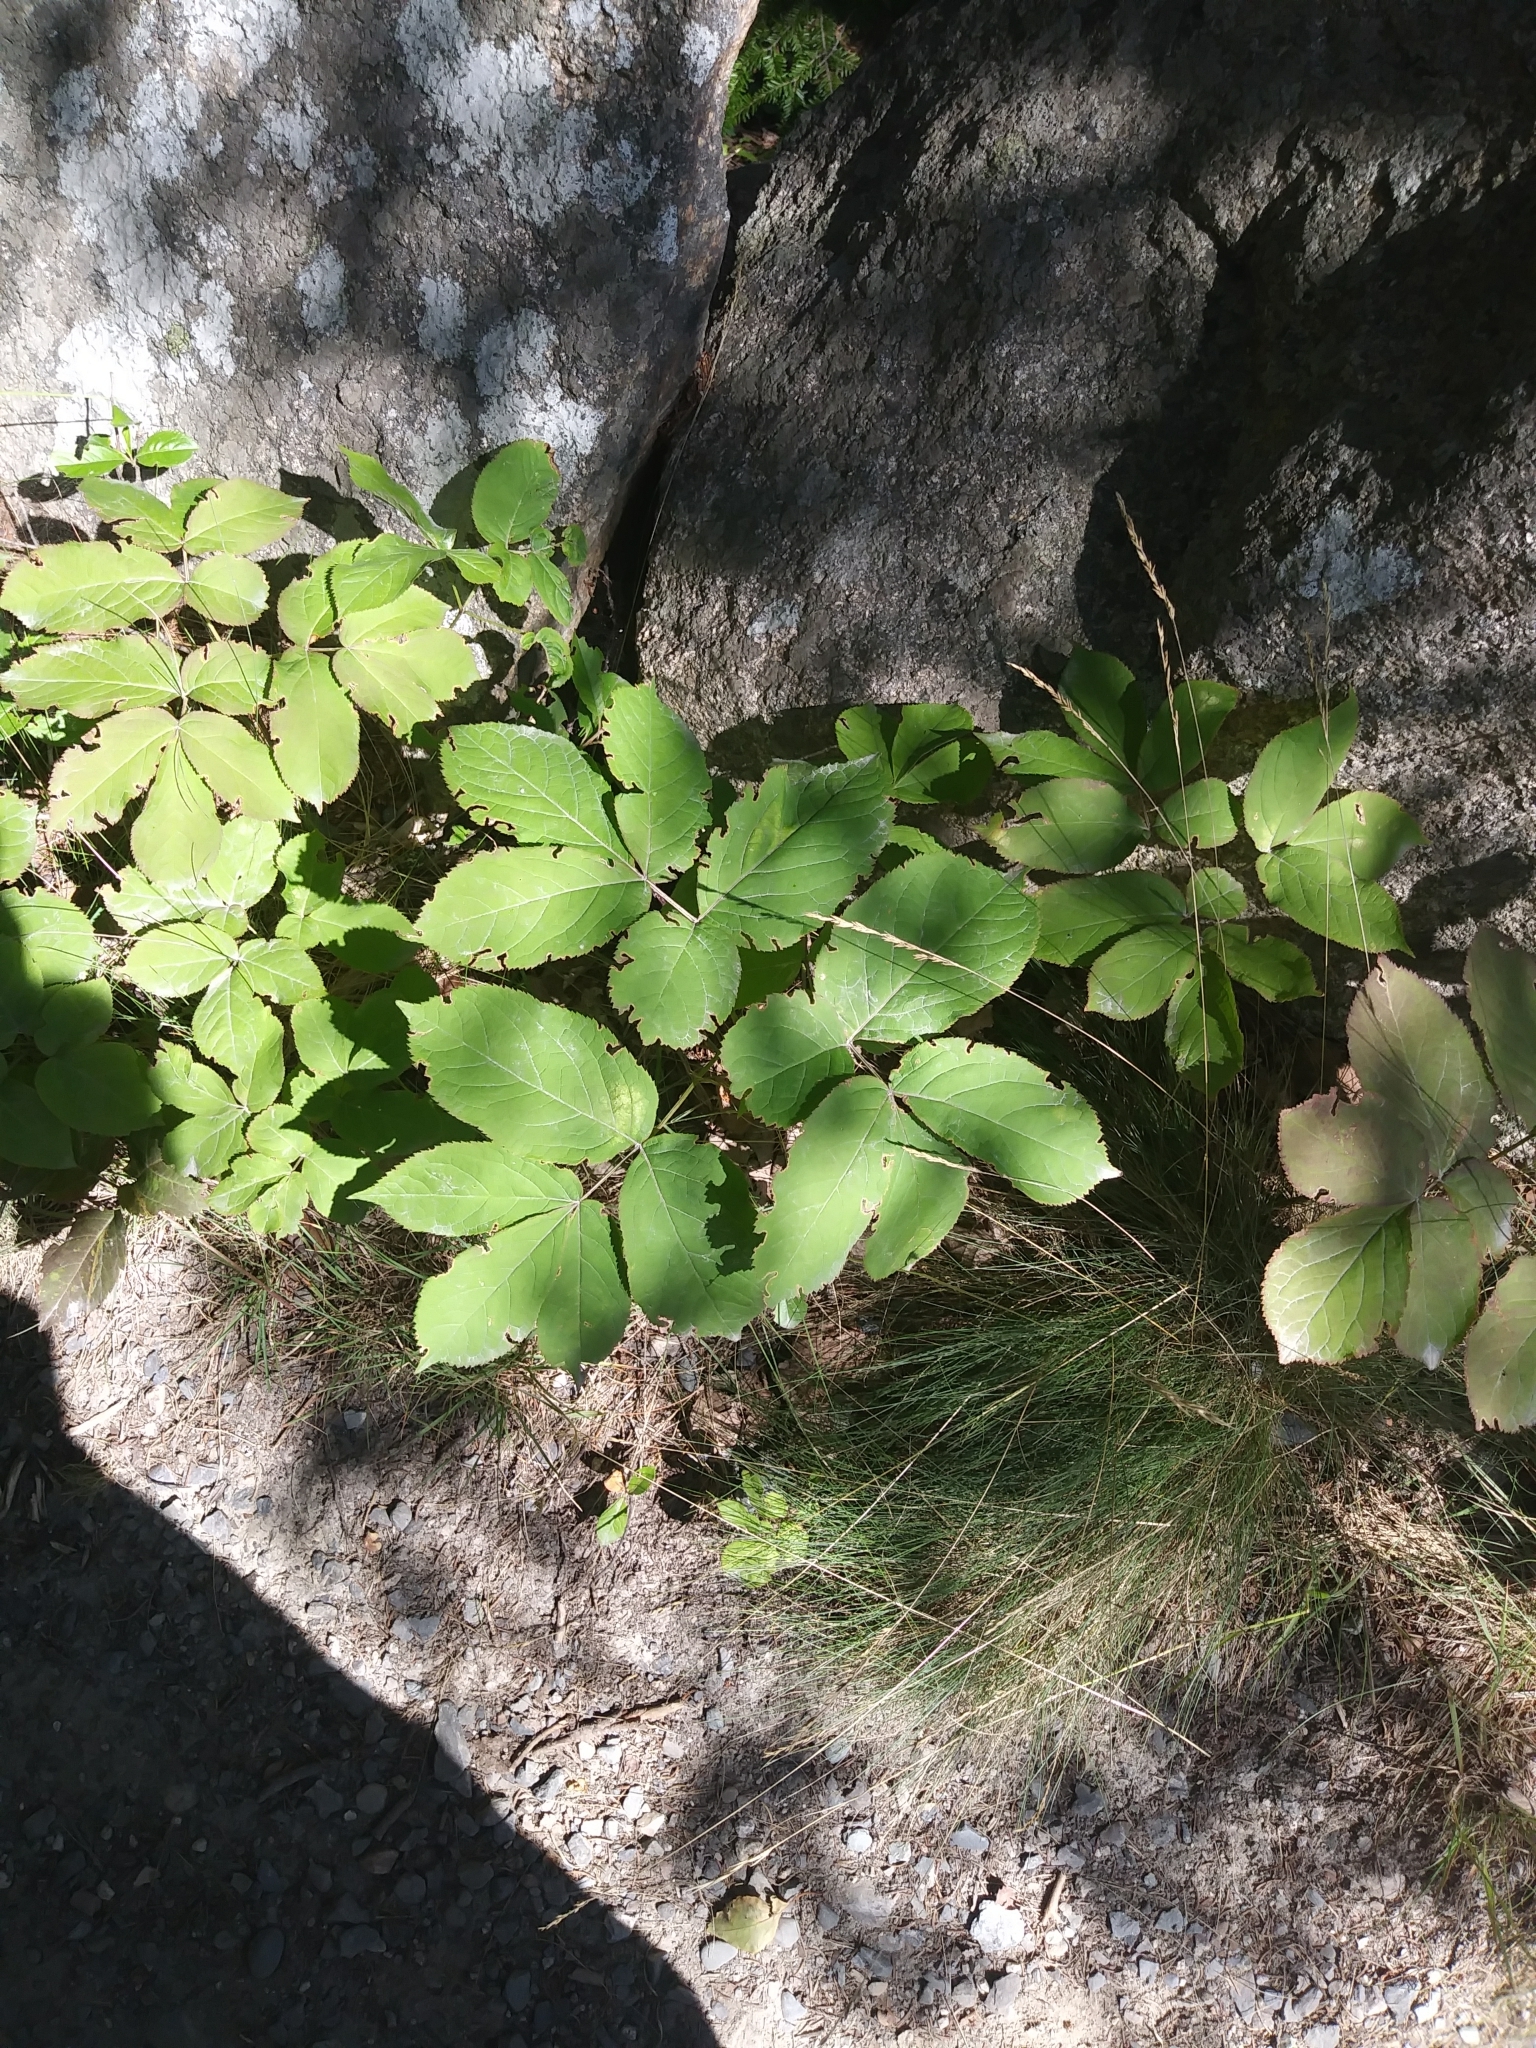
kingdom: Plantae
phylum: Tracheophyta
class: Magnoliopsida
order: Apiales
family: Araliaceae
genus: Aralia
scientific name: Aralia nudicaulis
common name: Wild sarsaparilla
